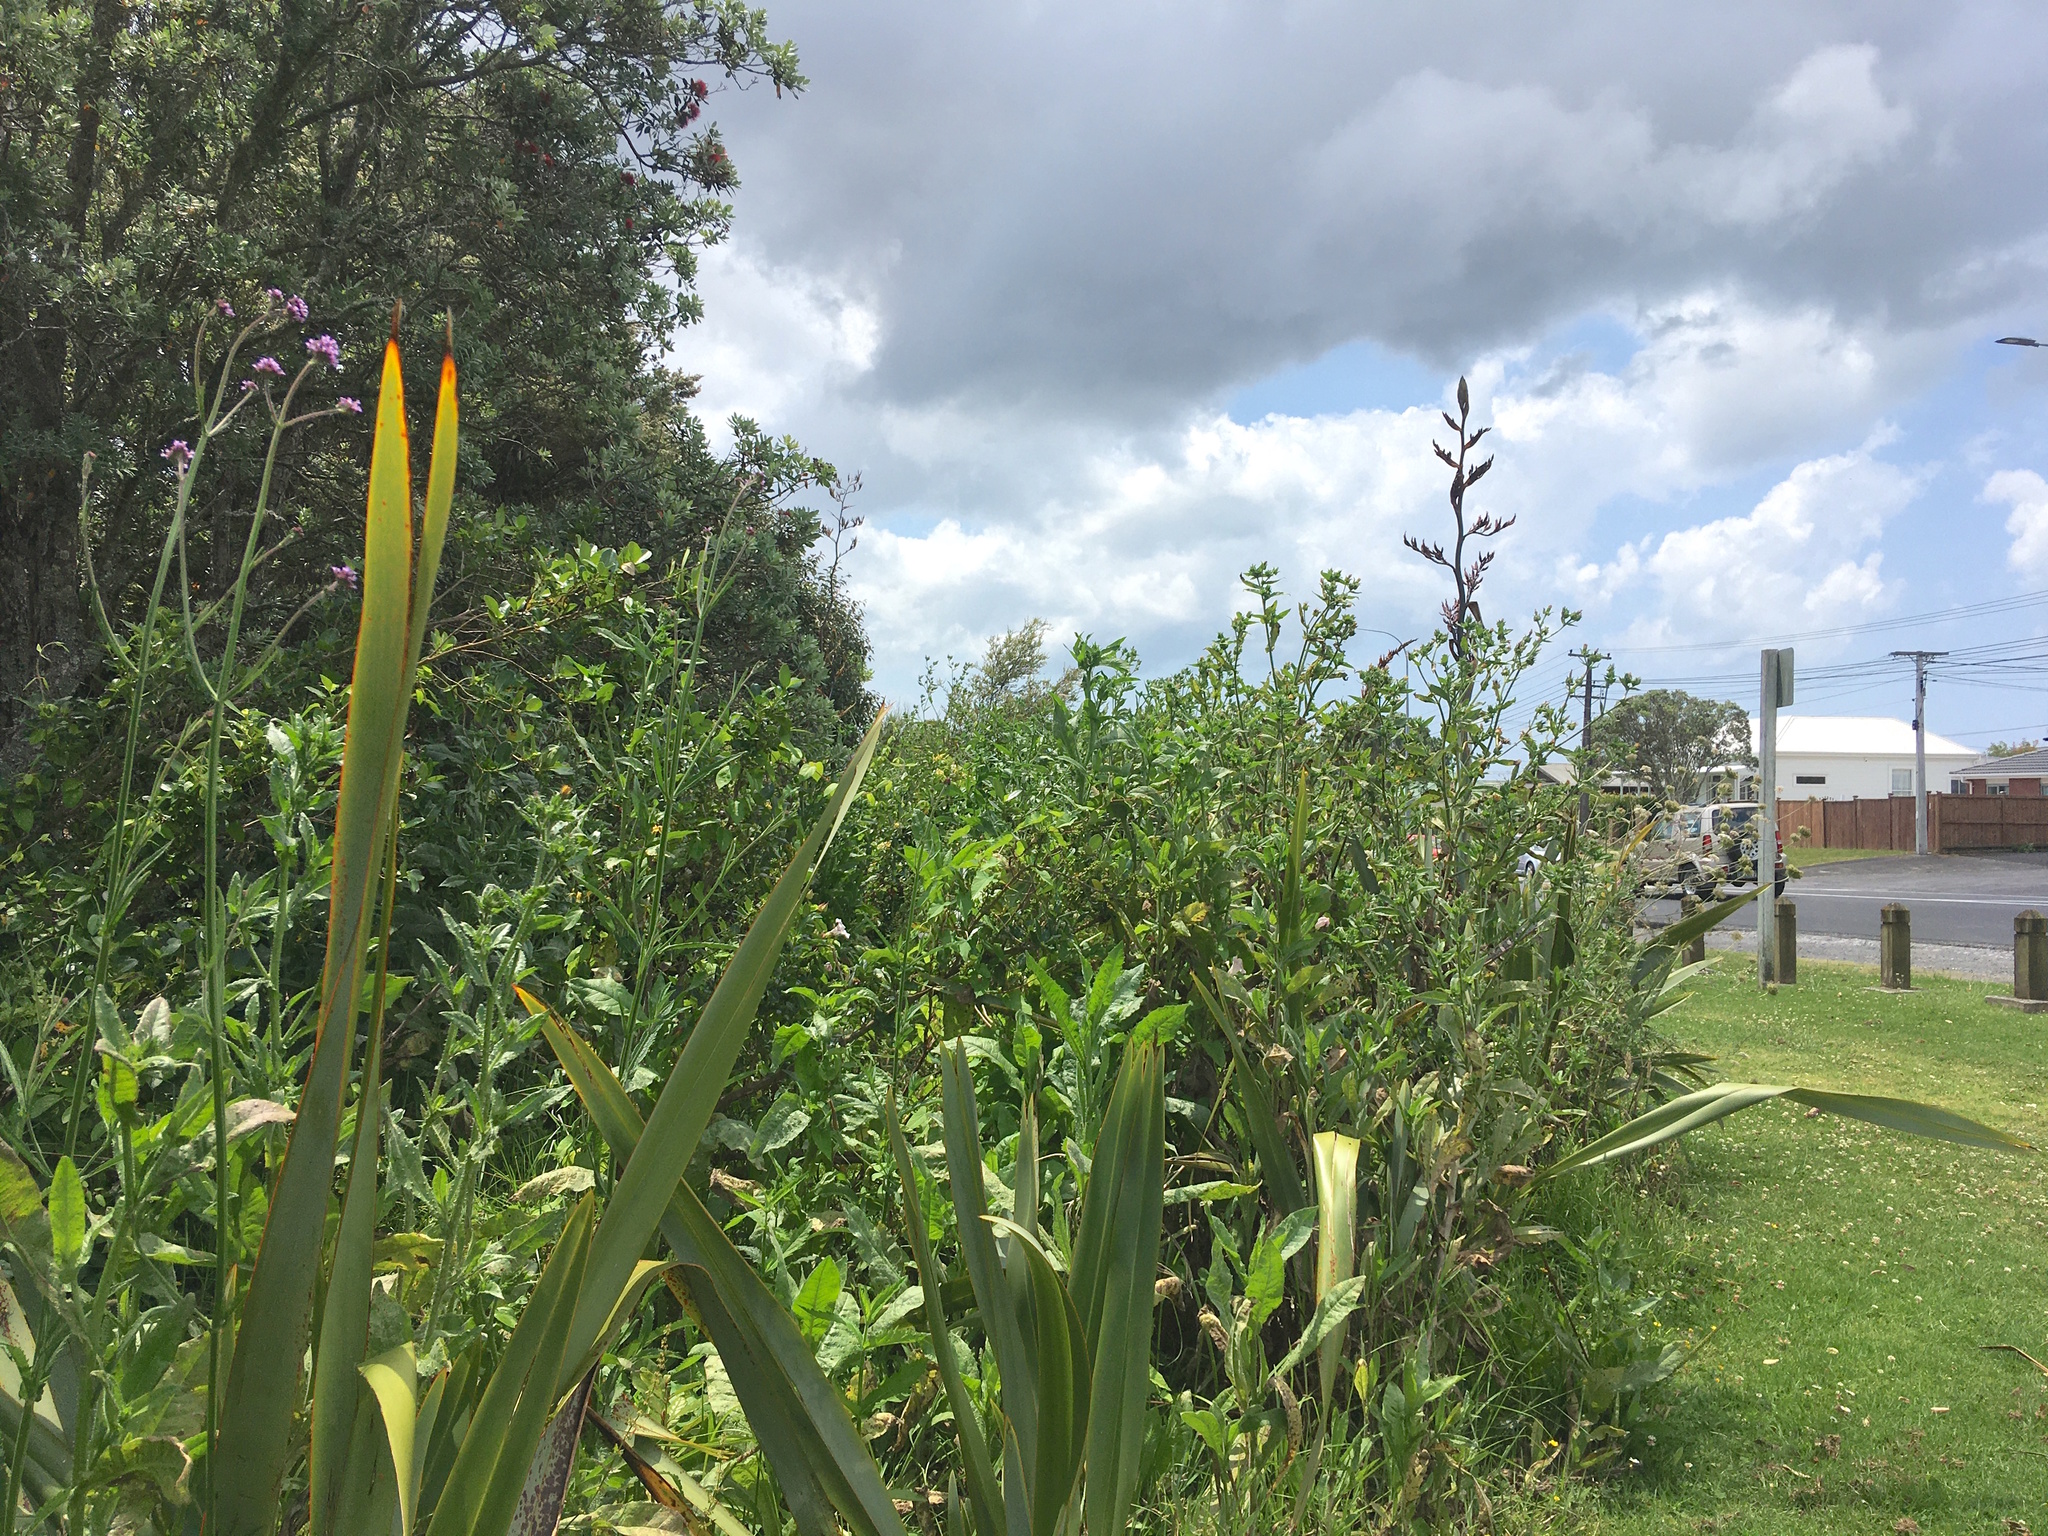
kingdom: Plantae
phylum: Tracheophyta
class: Magnoliopsida
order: Asterales
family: Asteraceae
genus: Helminthotheca
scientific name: Helminthotheca echioides
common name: Ox-tongue
